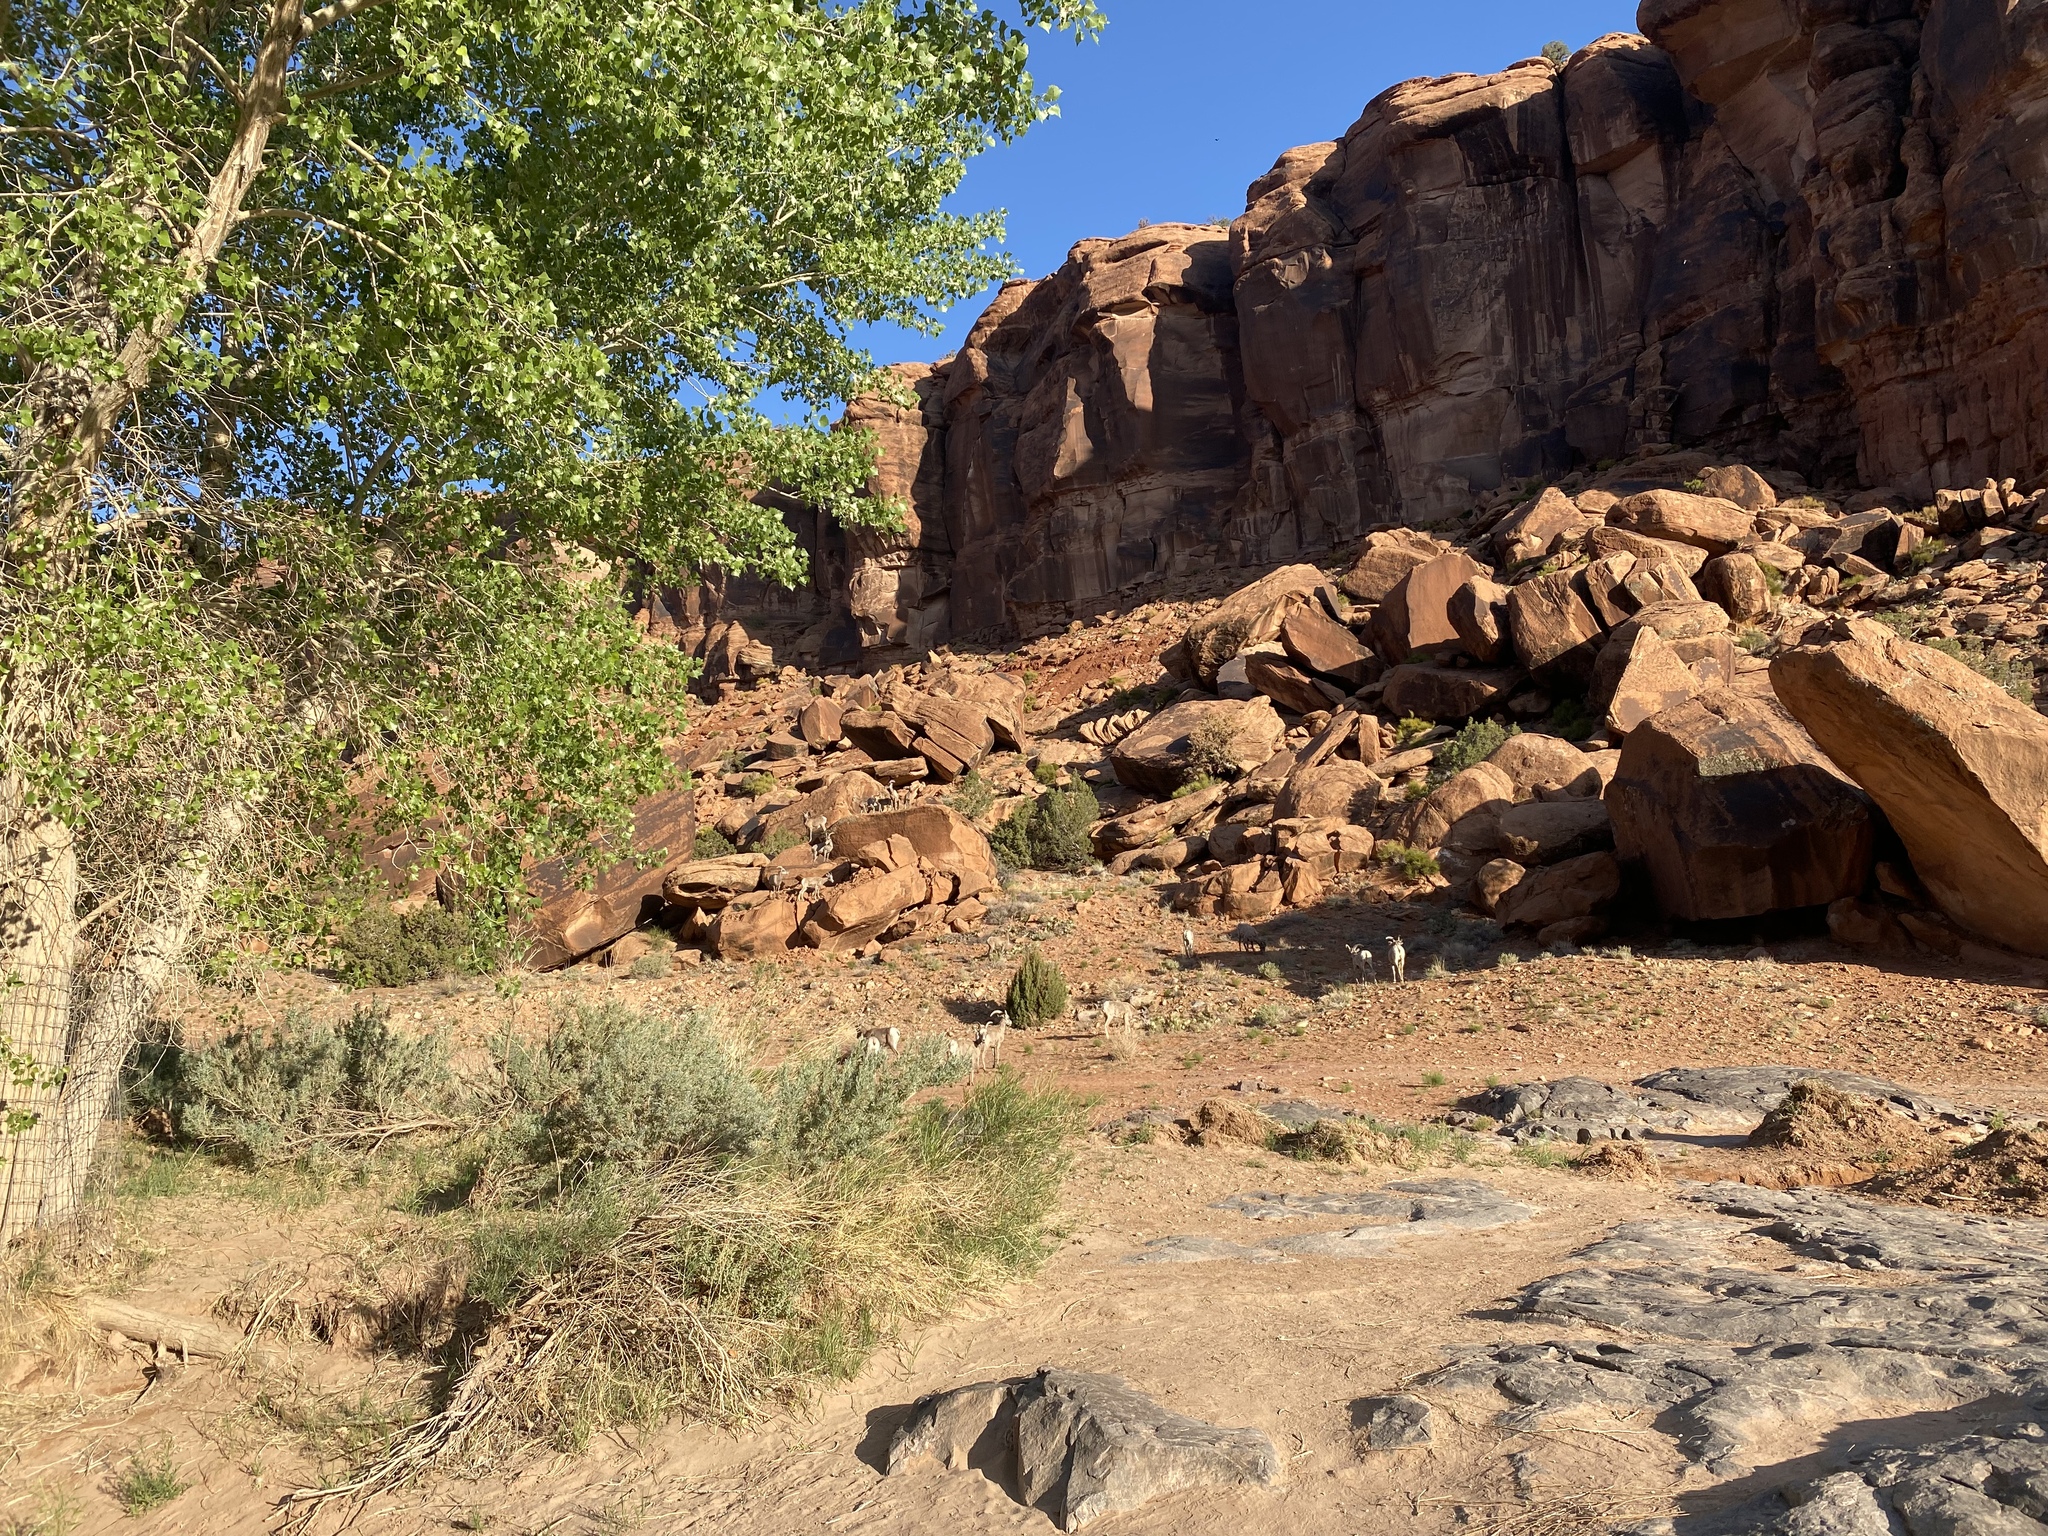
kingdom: Animalia
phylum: Chordata
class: Mammalia
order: Artiodactyla
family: Bovidae
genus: Ovis
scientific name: Ovis canadensis
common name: Bighorn sheep
